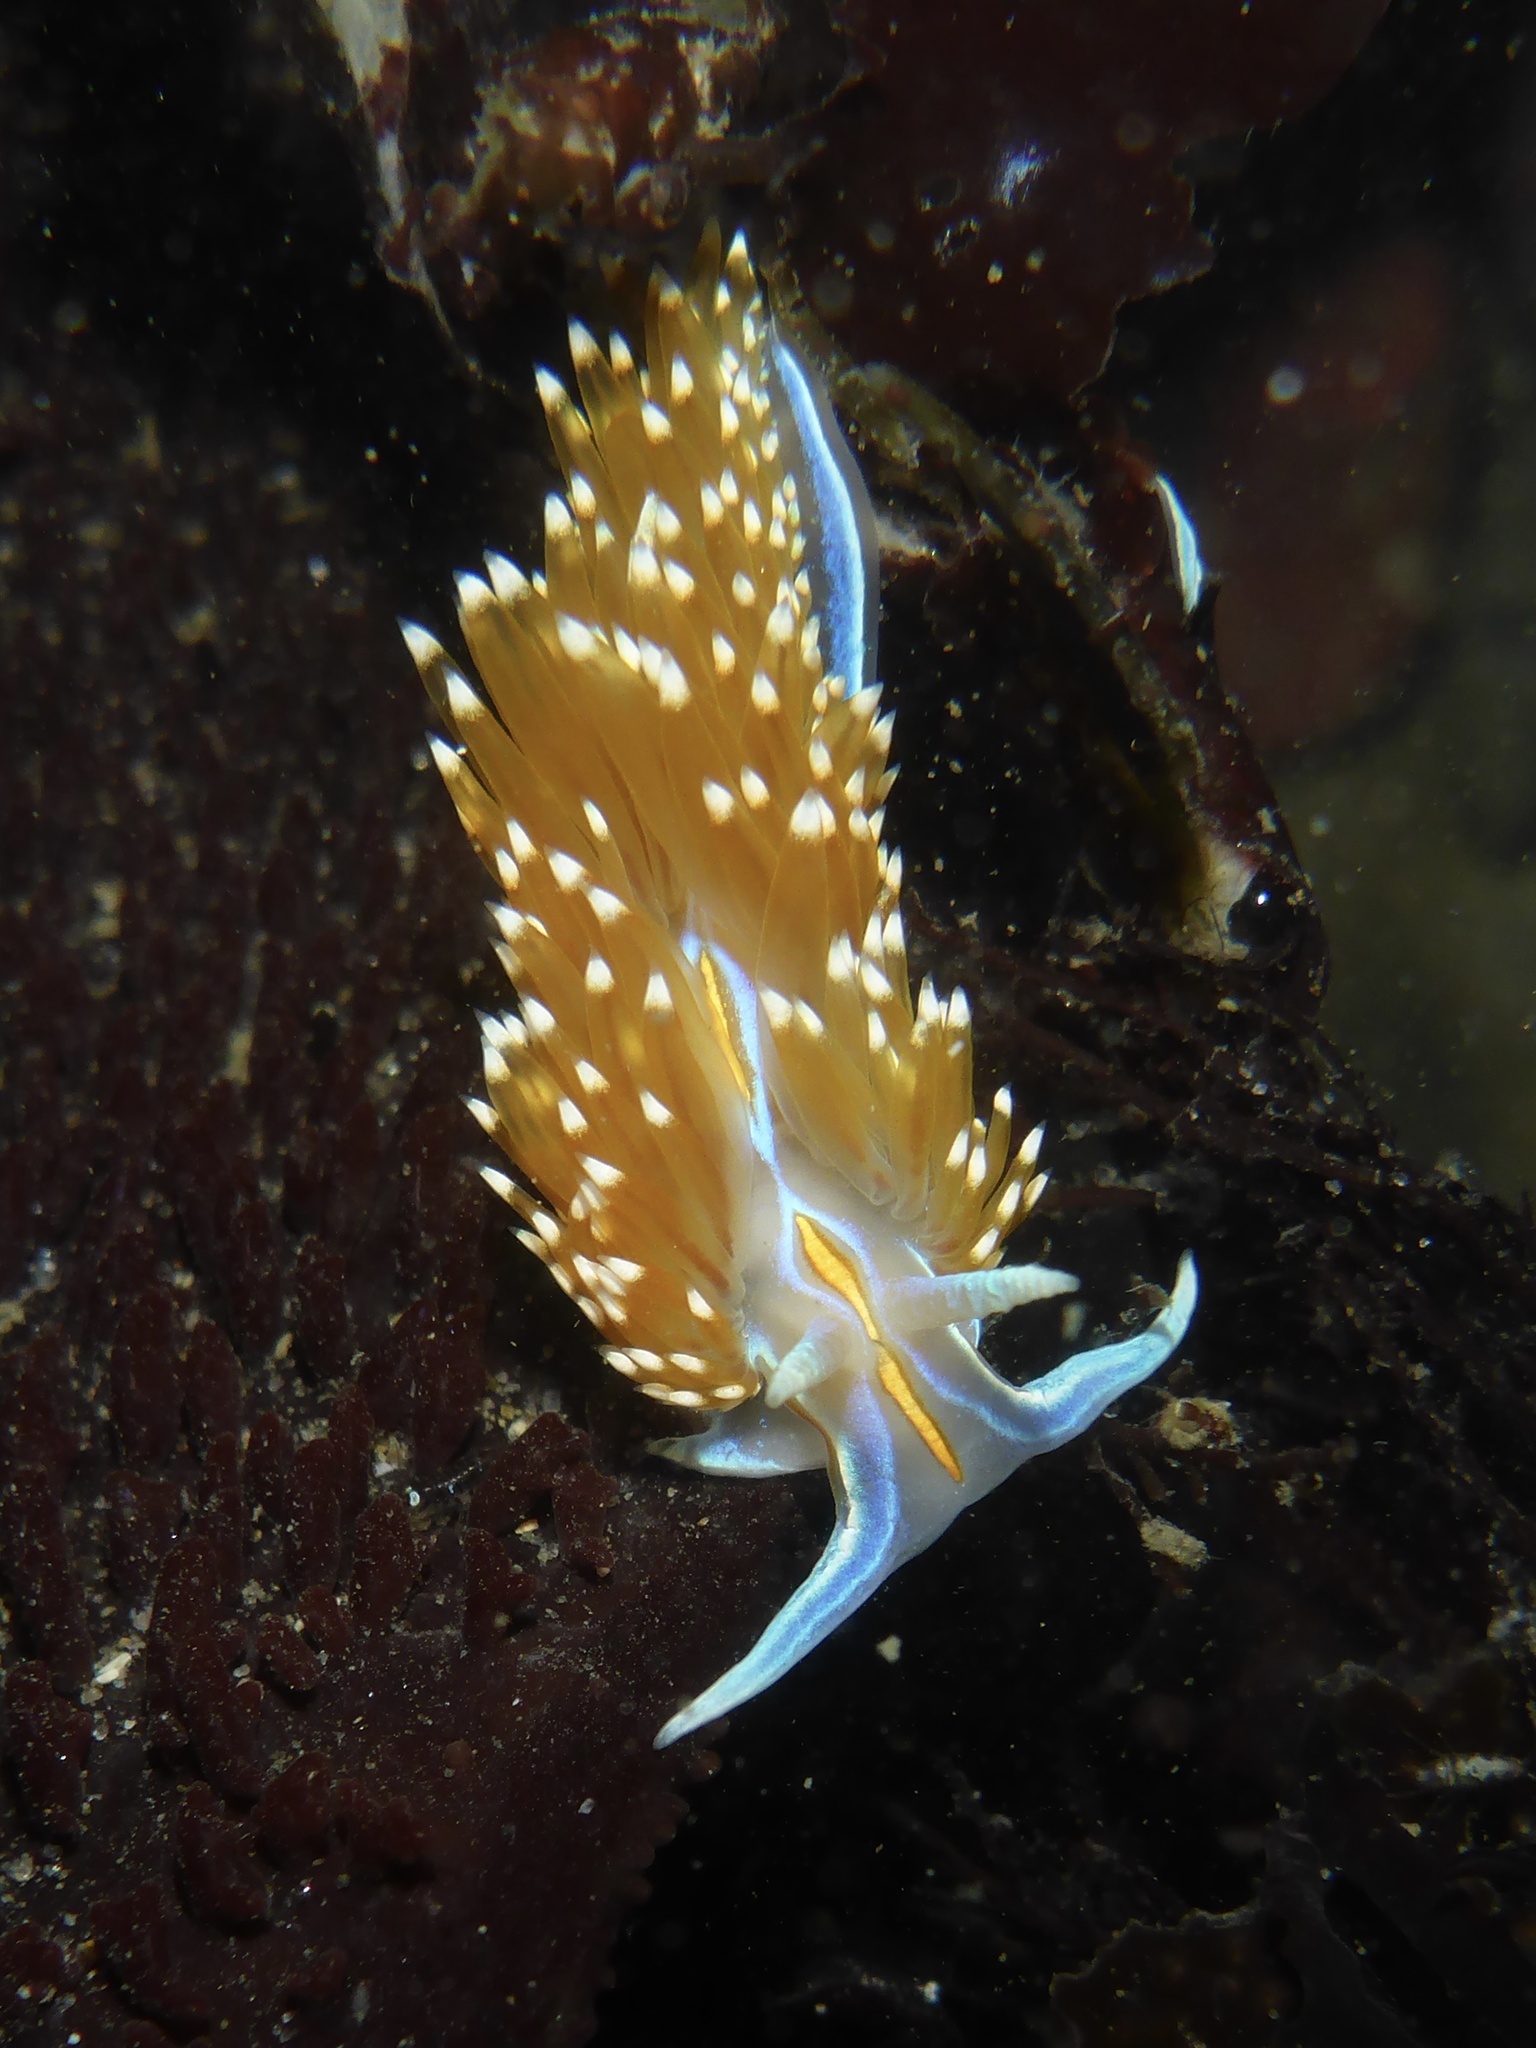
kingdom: Animalia
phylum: Mollusca
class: Gastropoda
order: Nudibranchia
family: Myrrhinidae
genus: Hermissenda
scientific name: Hermissenda opalescens
